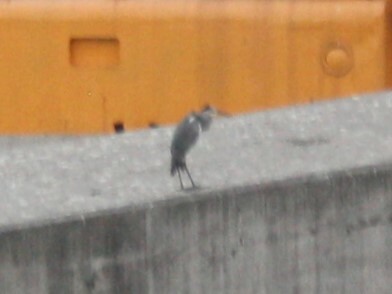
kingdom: Animalia
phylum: Chordata
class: Aves
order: Pelecaniformes
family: Ardeidae
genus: Ardea
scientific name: Ardea cinerea
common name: Grey heron
